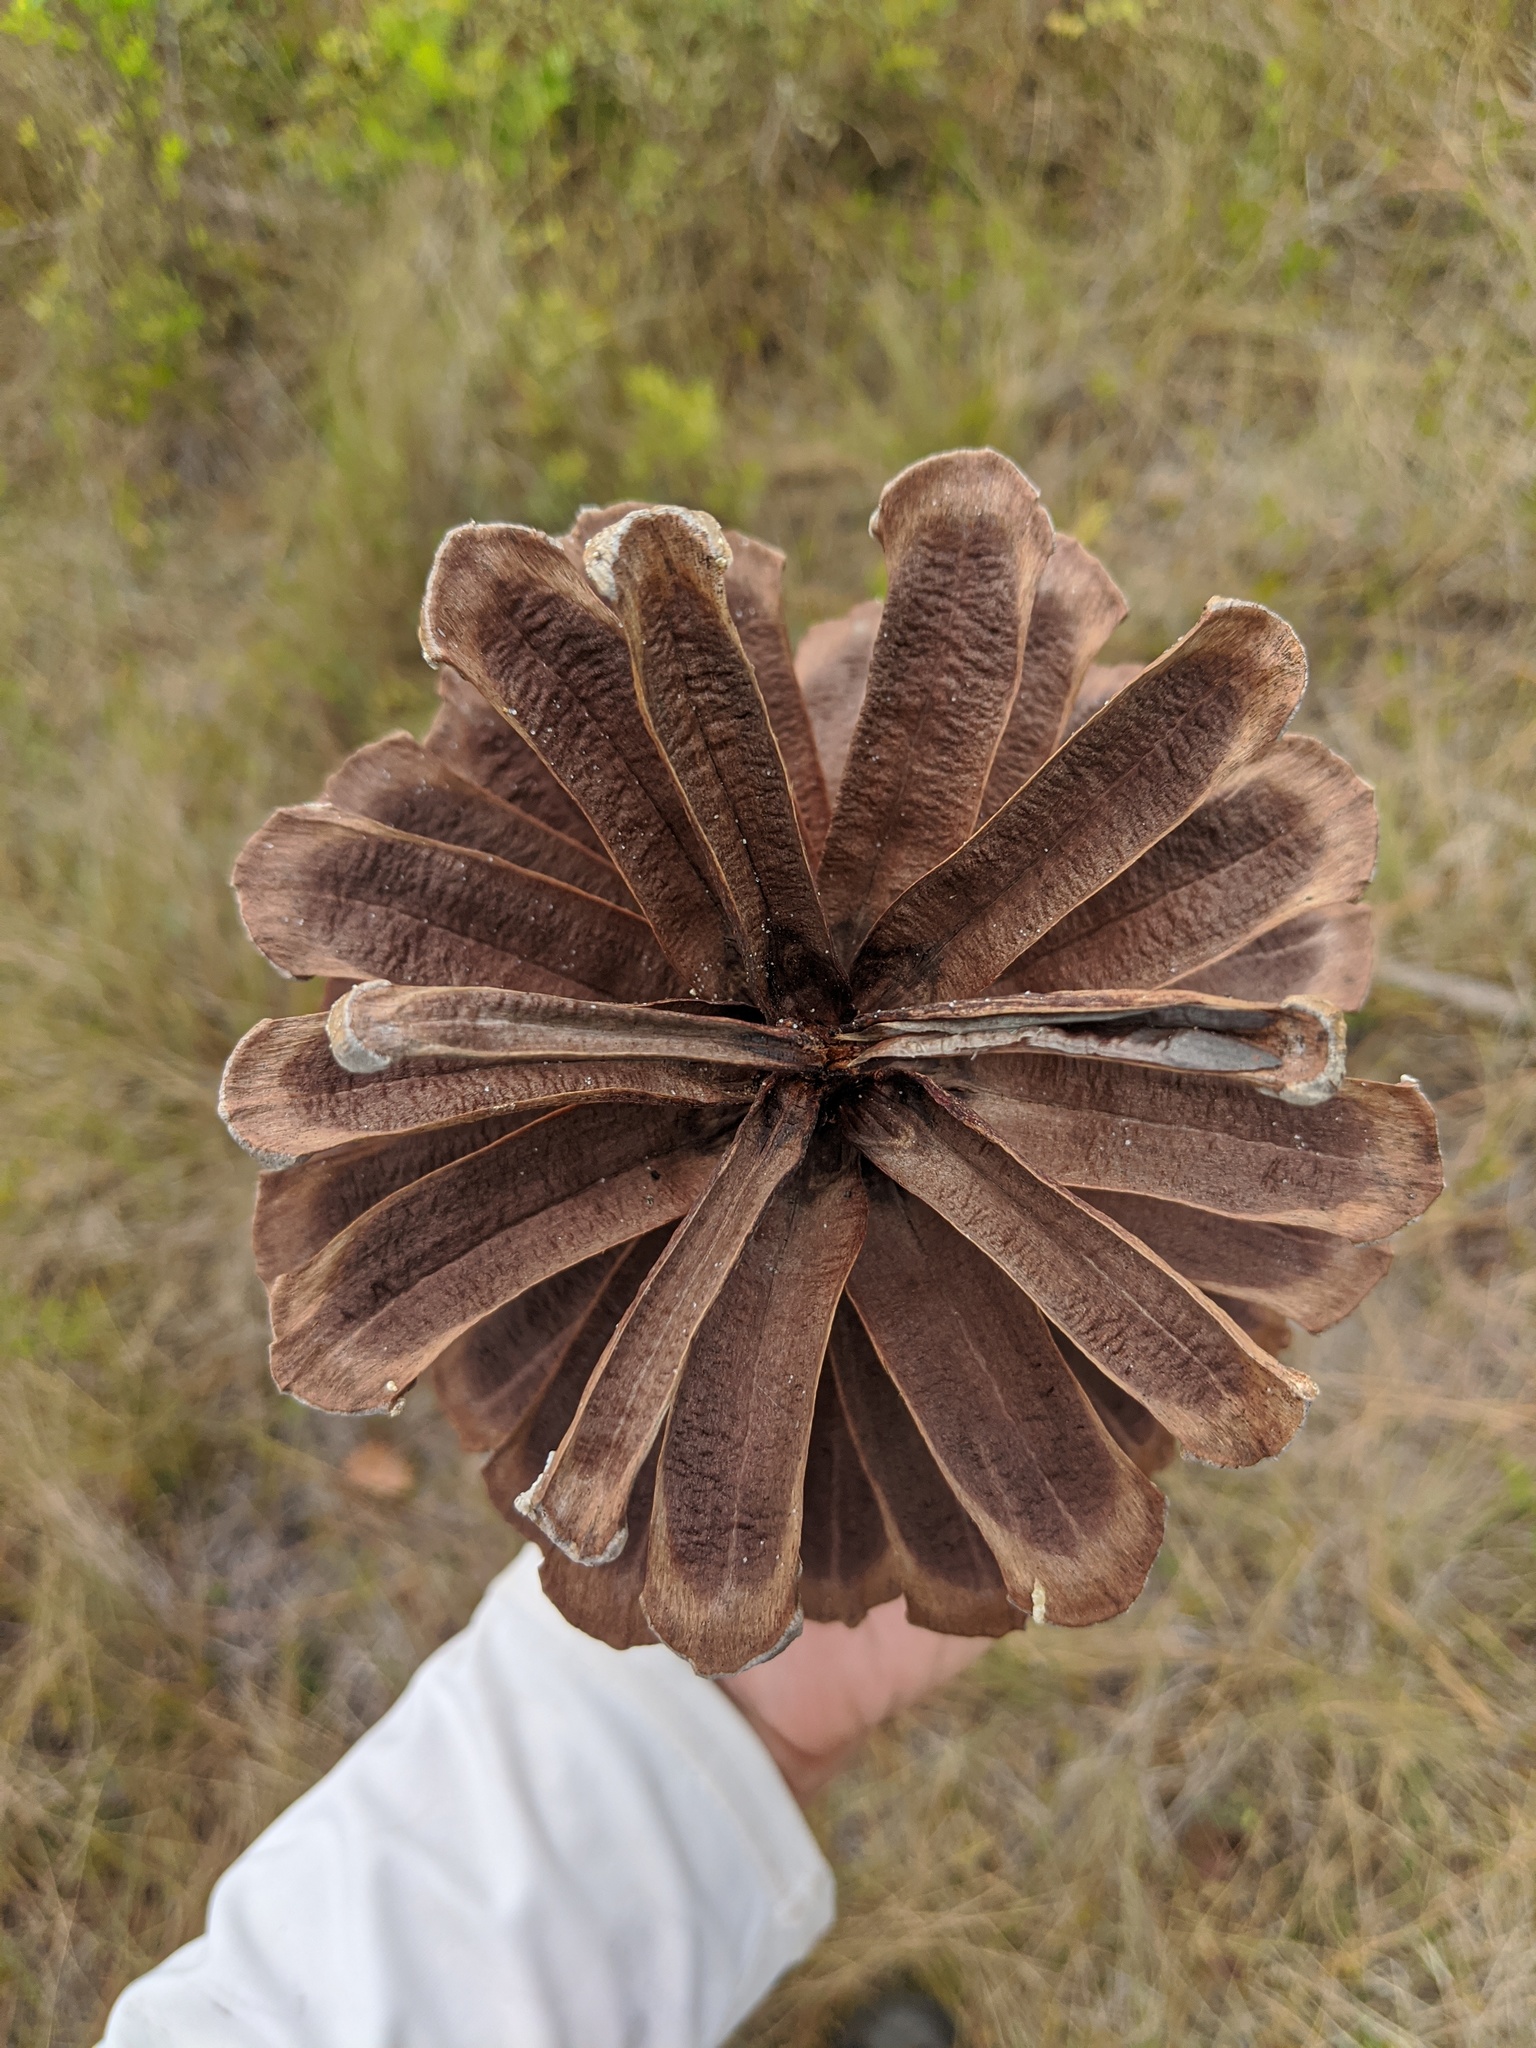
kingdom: Plantae
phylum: Tracheophyta
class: Pinopsida
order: Pinales
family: Pinaceae
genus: Pinus
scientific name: Pinus palustris
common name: Longleaf pine
